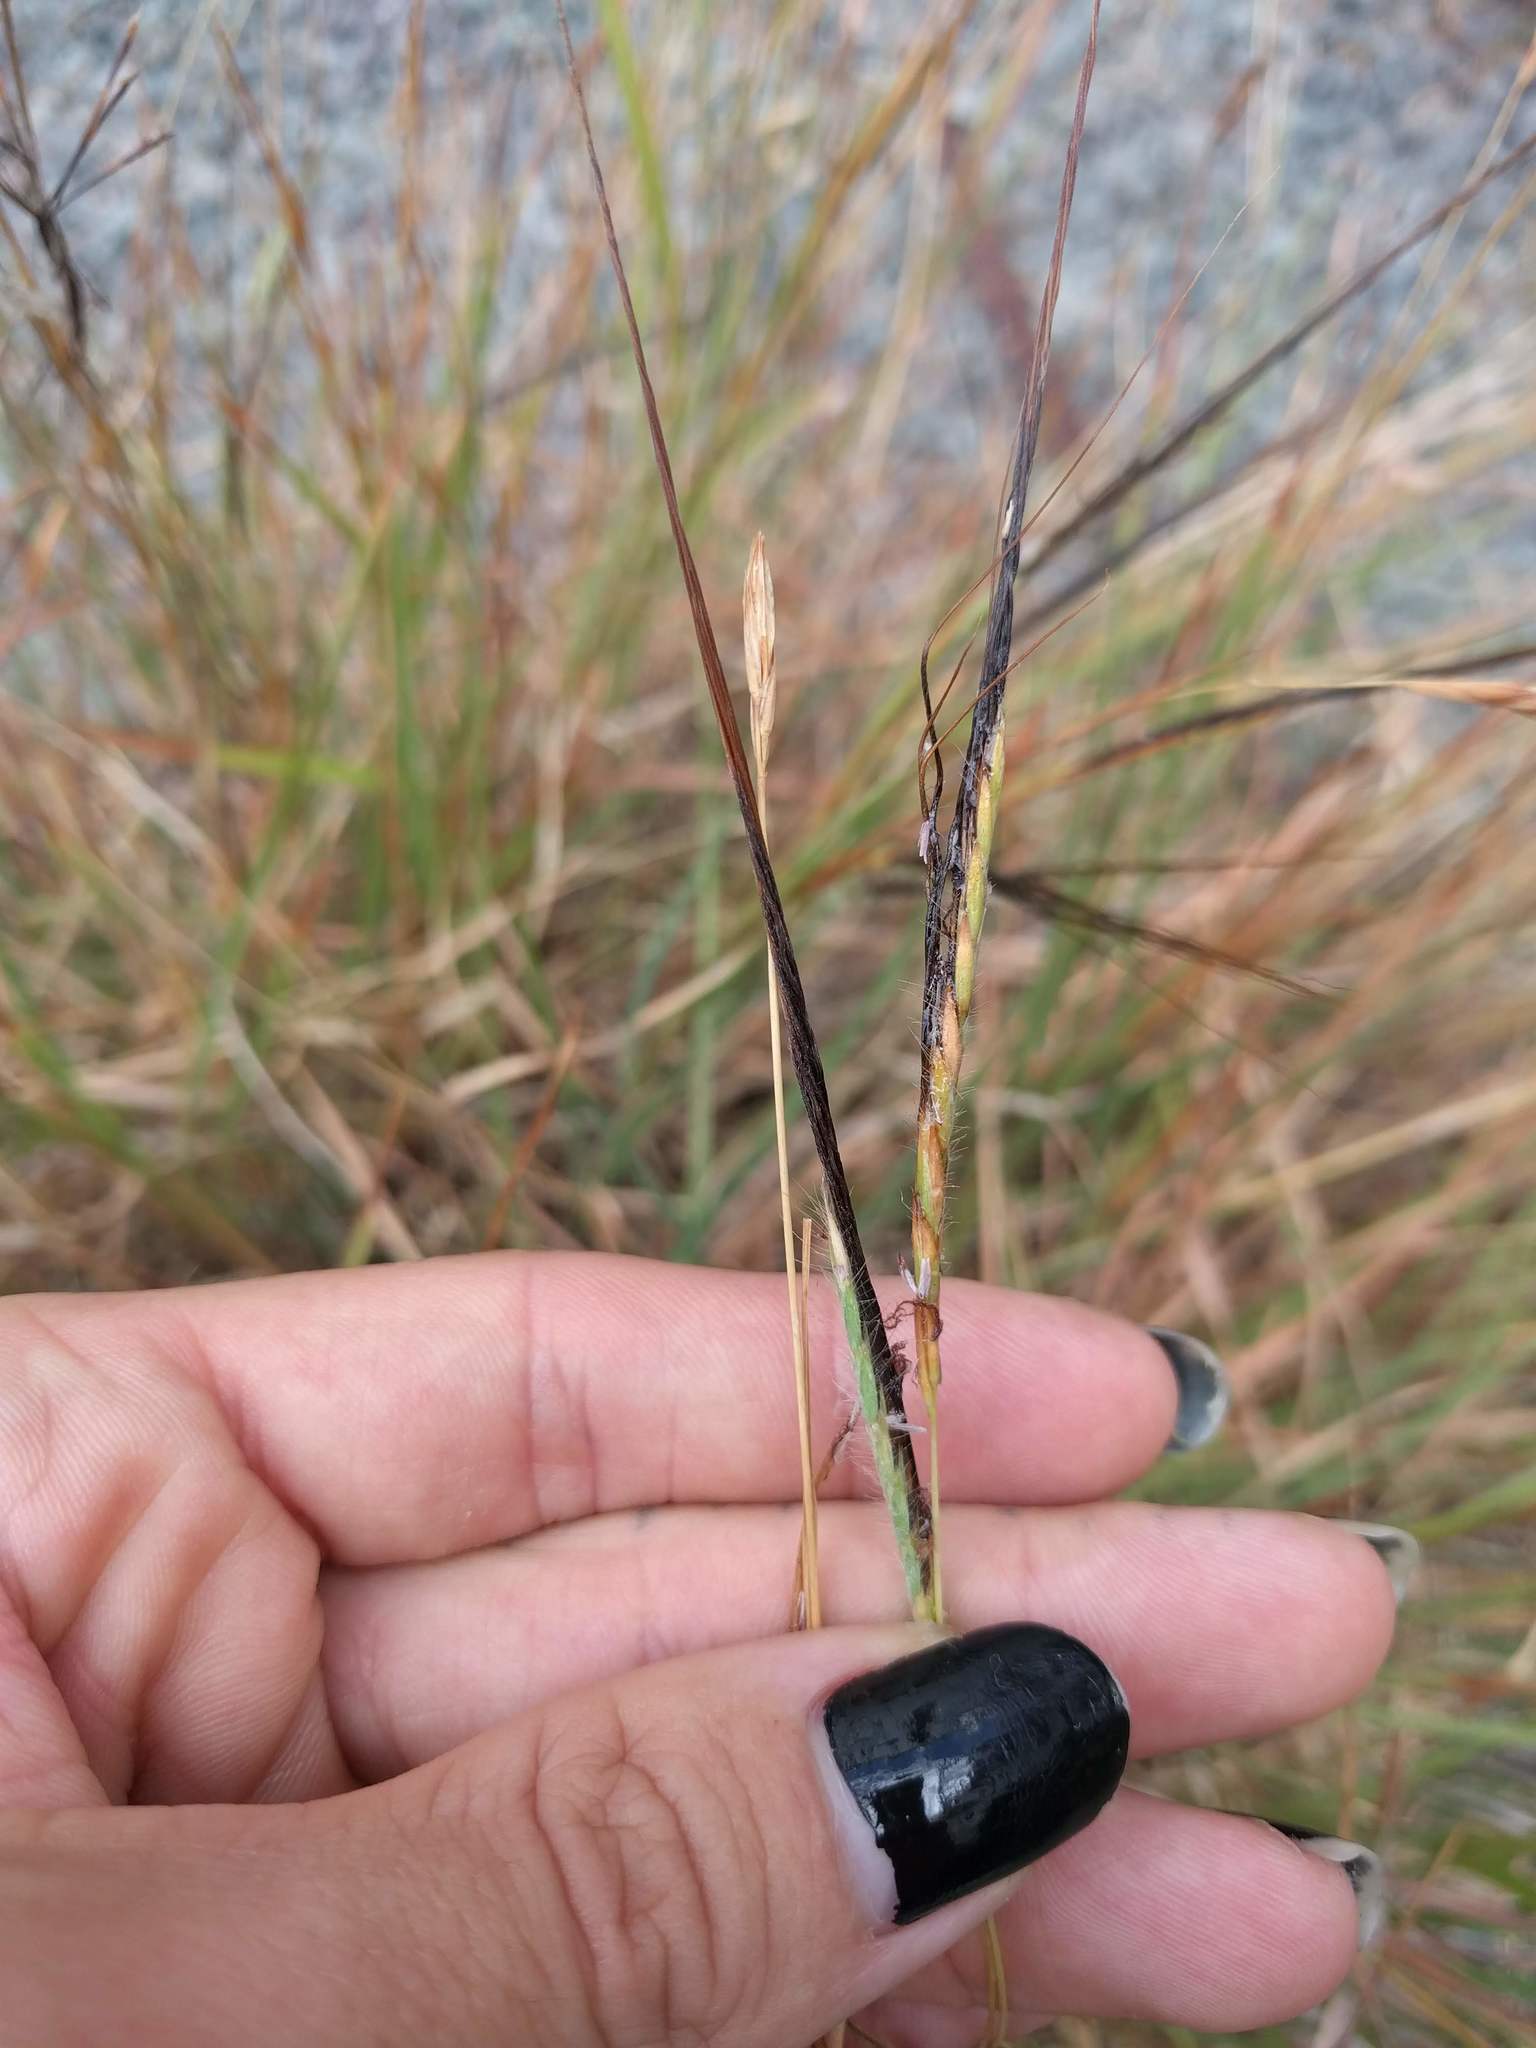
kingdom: Plantae
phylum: Tracheophyta
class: Liliopsida
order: Poales
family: Poaceae
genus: Heteropogon
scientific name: Heteropogon contortus
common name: Tanglehead
